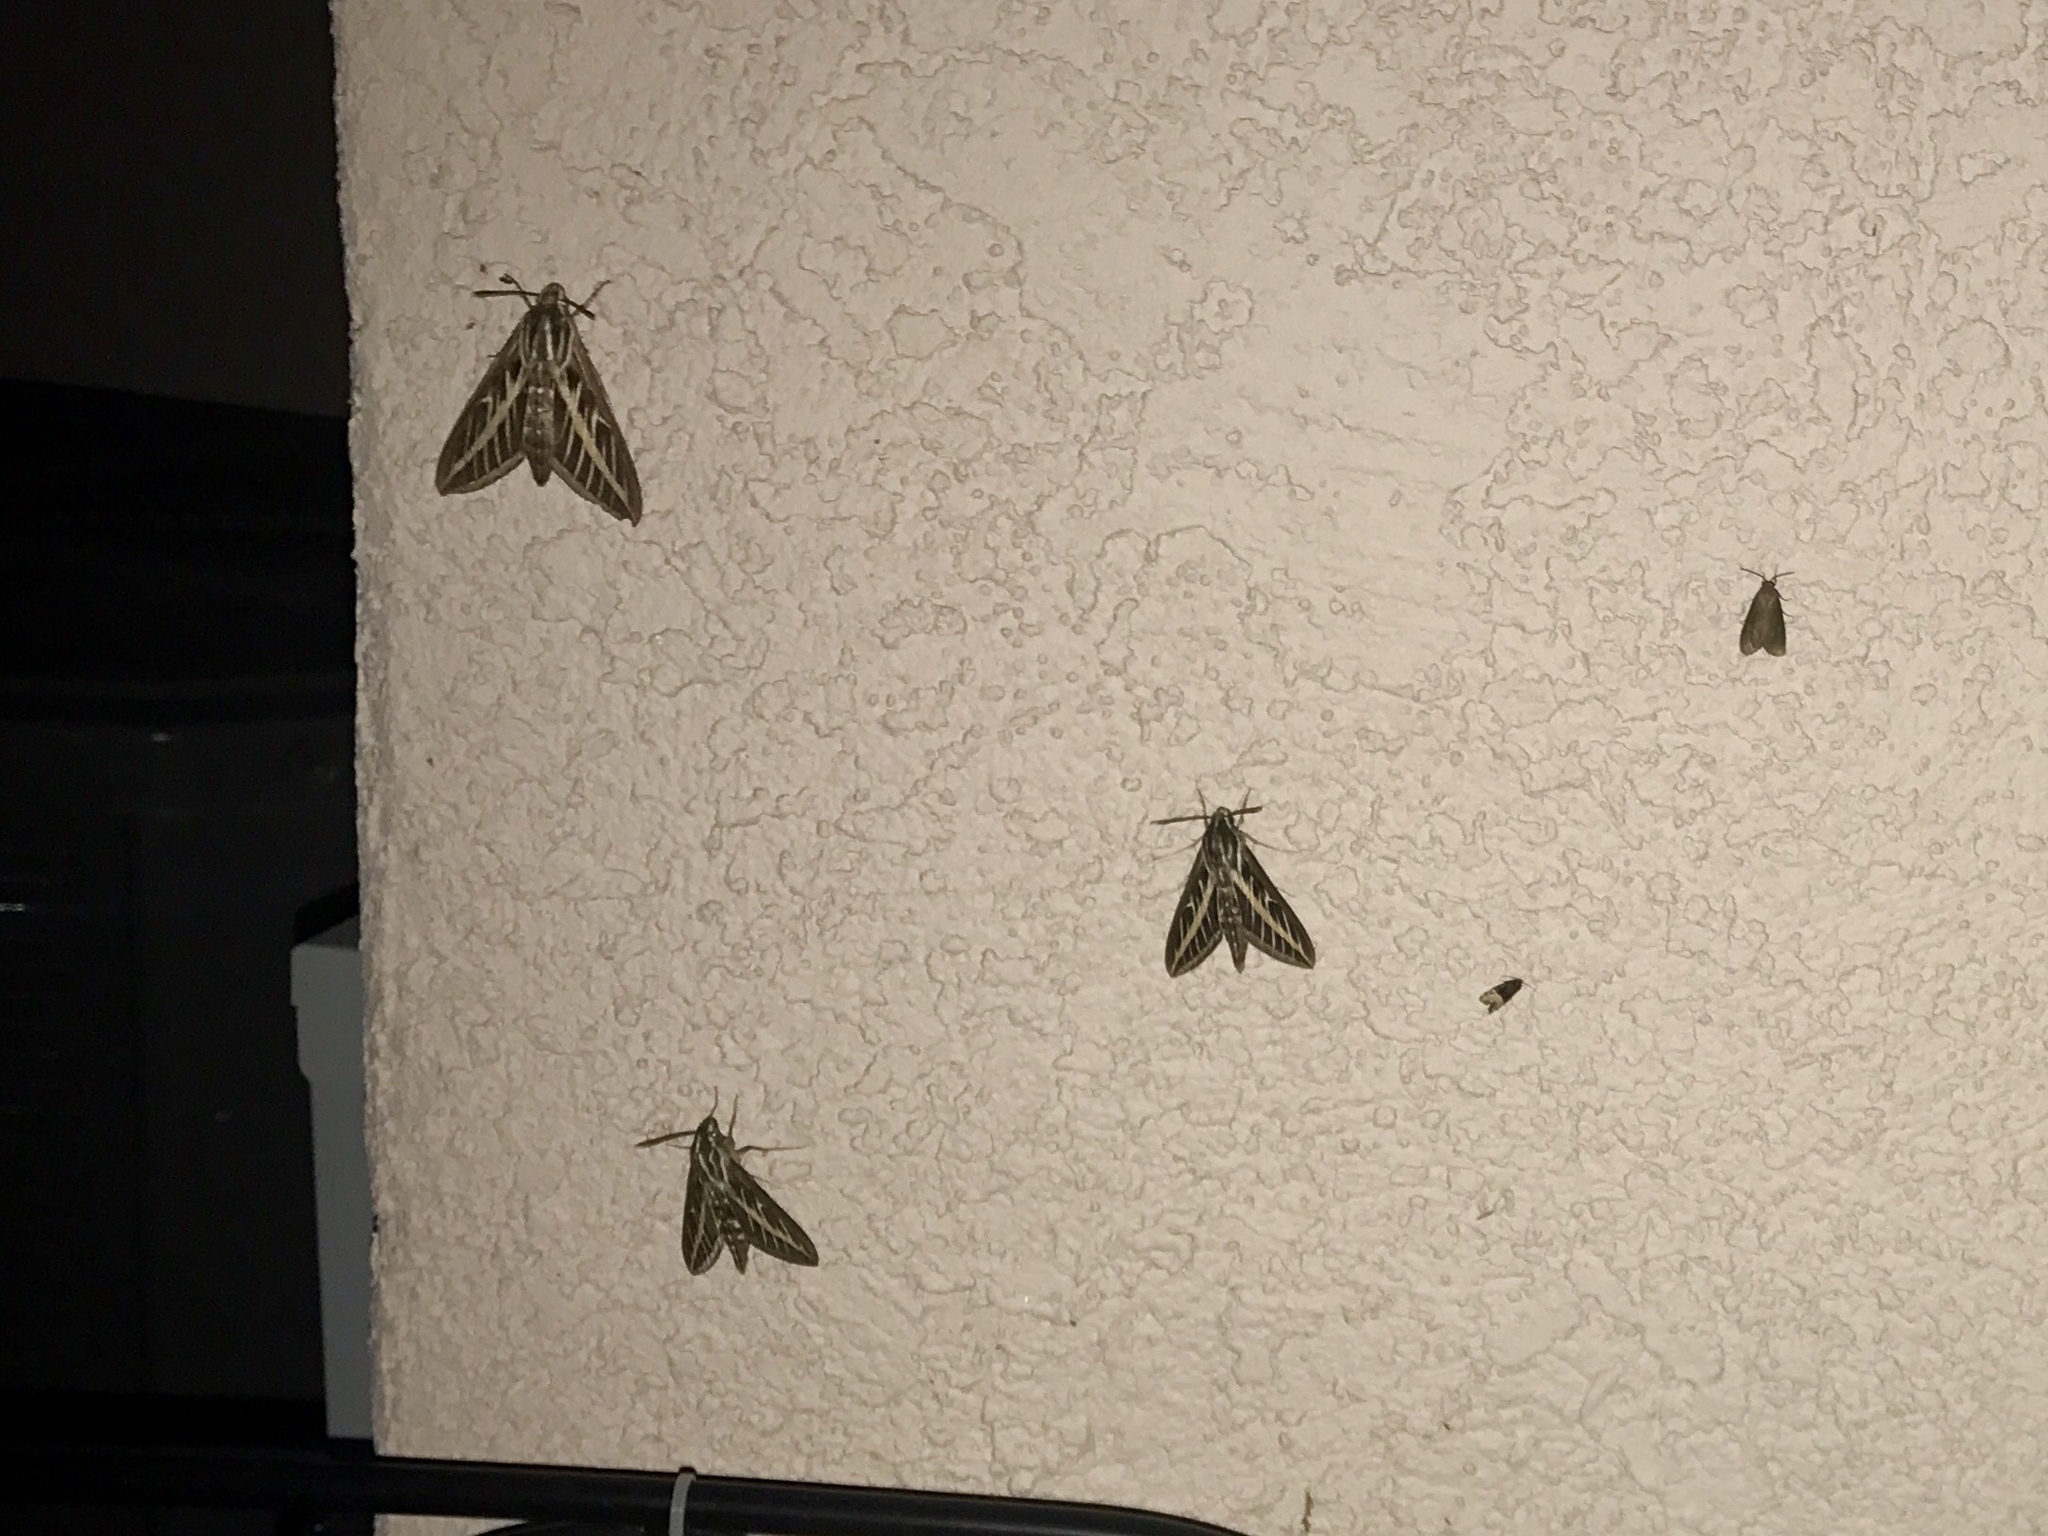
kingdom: Animalia
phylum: Arthropoda
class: Insecta
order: Lepidoptera
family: Sphingidae
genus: Hyles
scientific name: Hyles lineata
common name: White-lined sphinx
